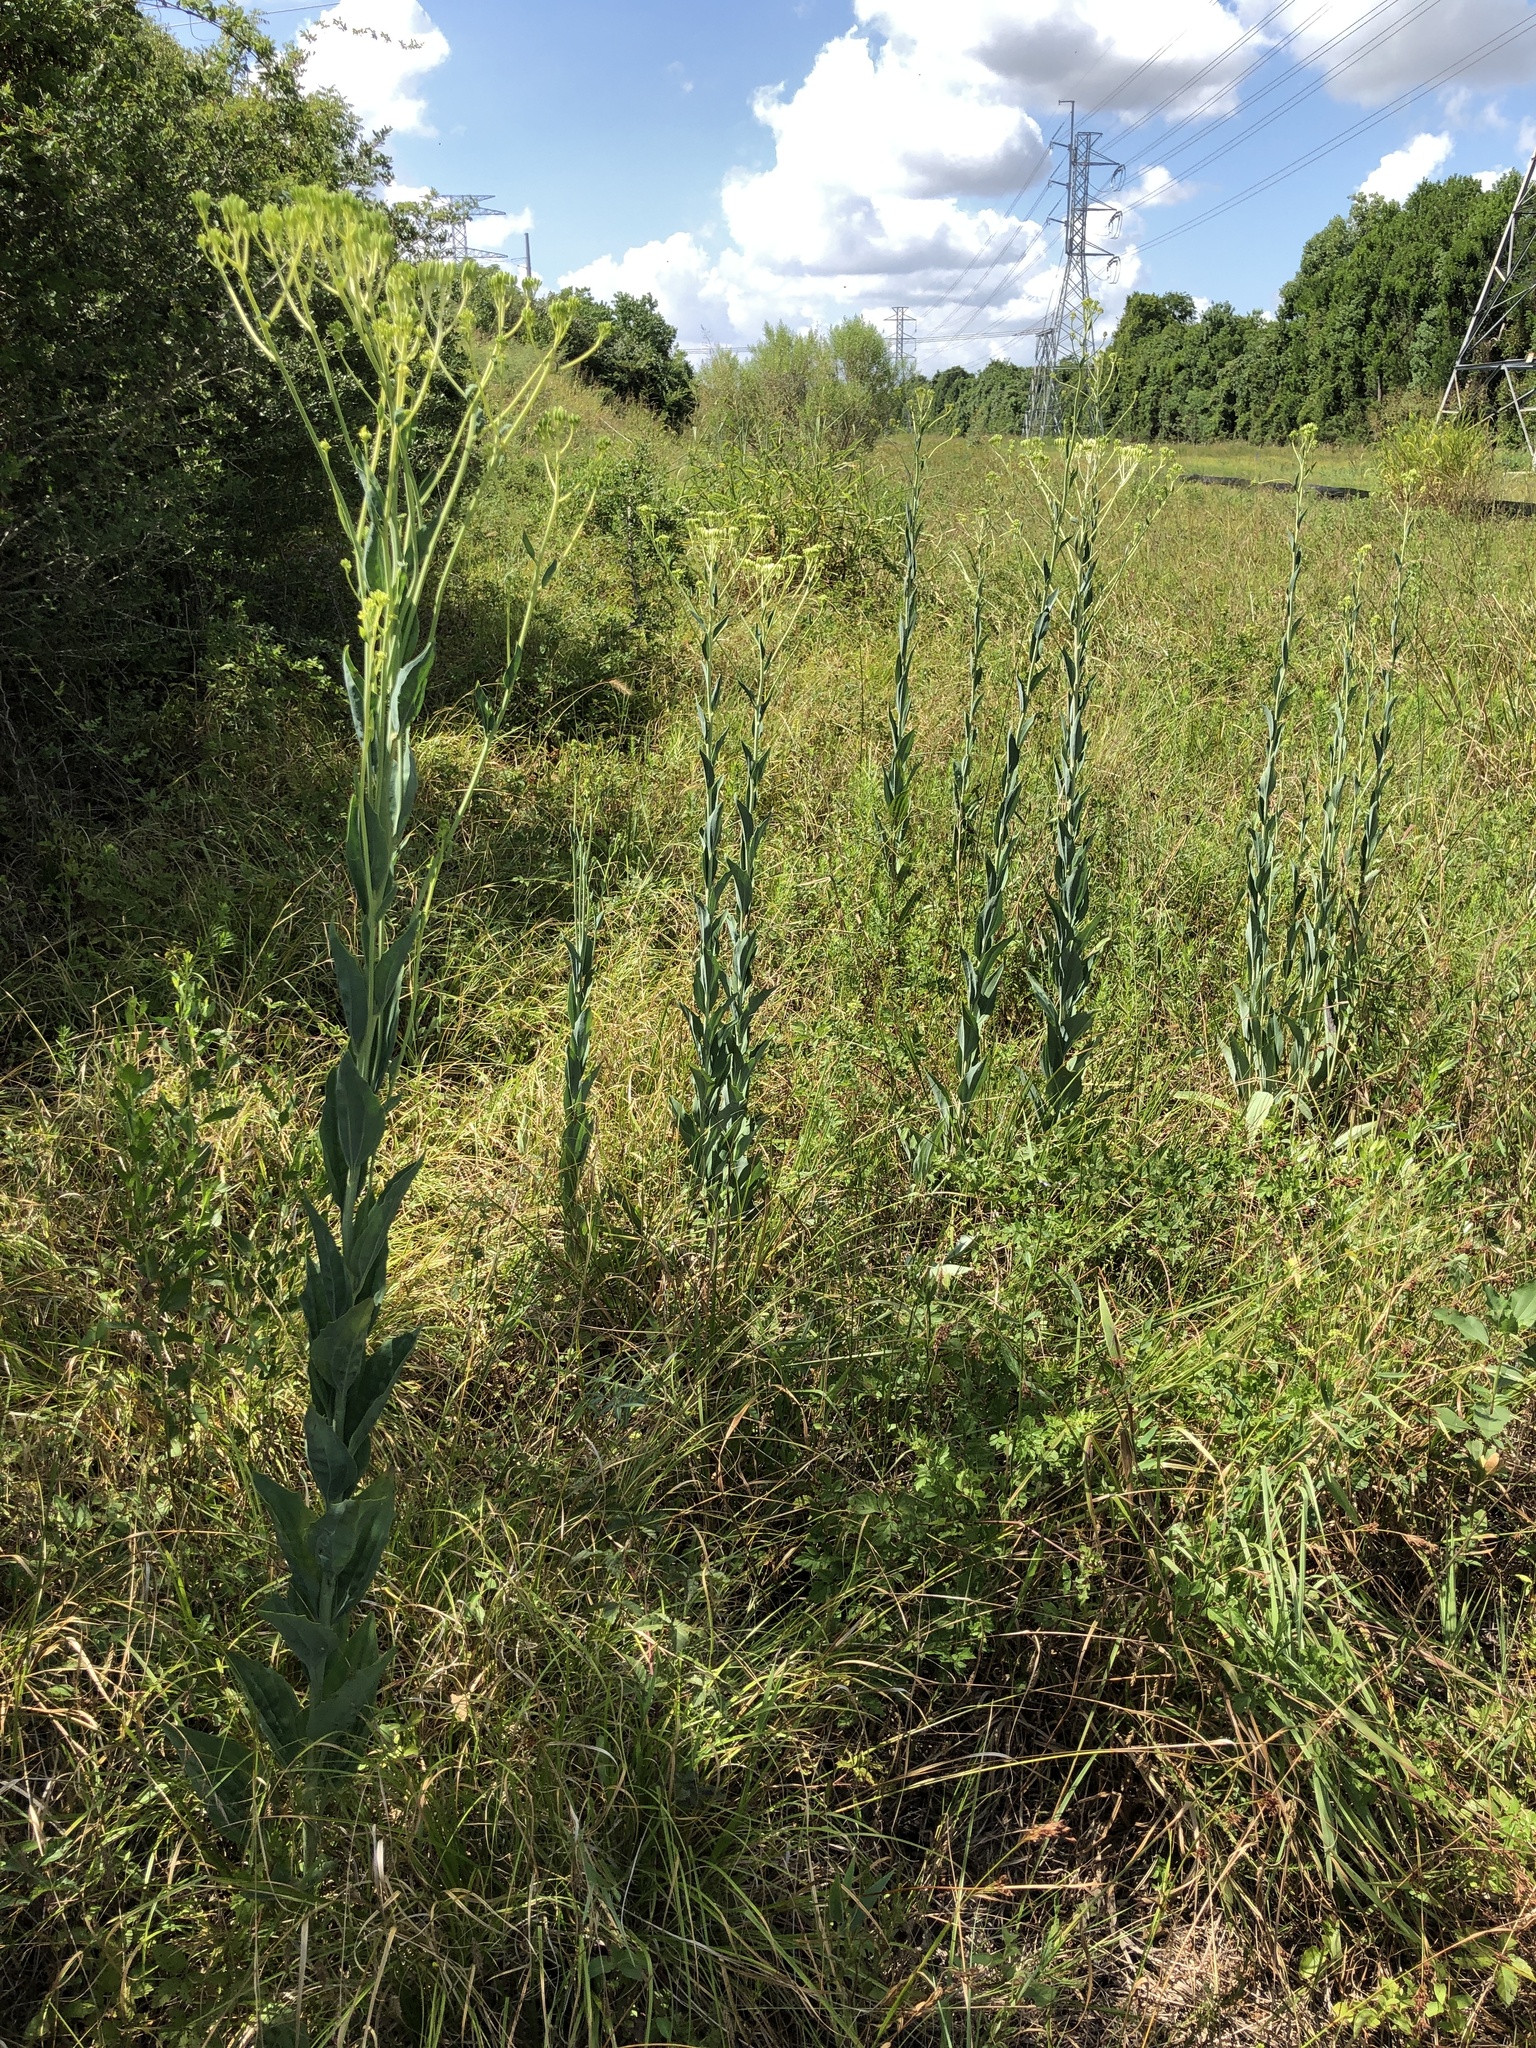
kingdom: Plantae
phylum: Tracheophyta
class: Magnoliopsida
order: Asterales
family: Asteraceae
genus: Arnoglossum
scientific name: Arnoglossum ovatum
